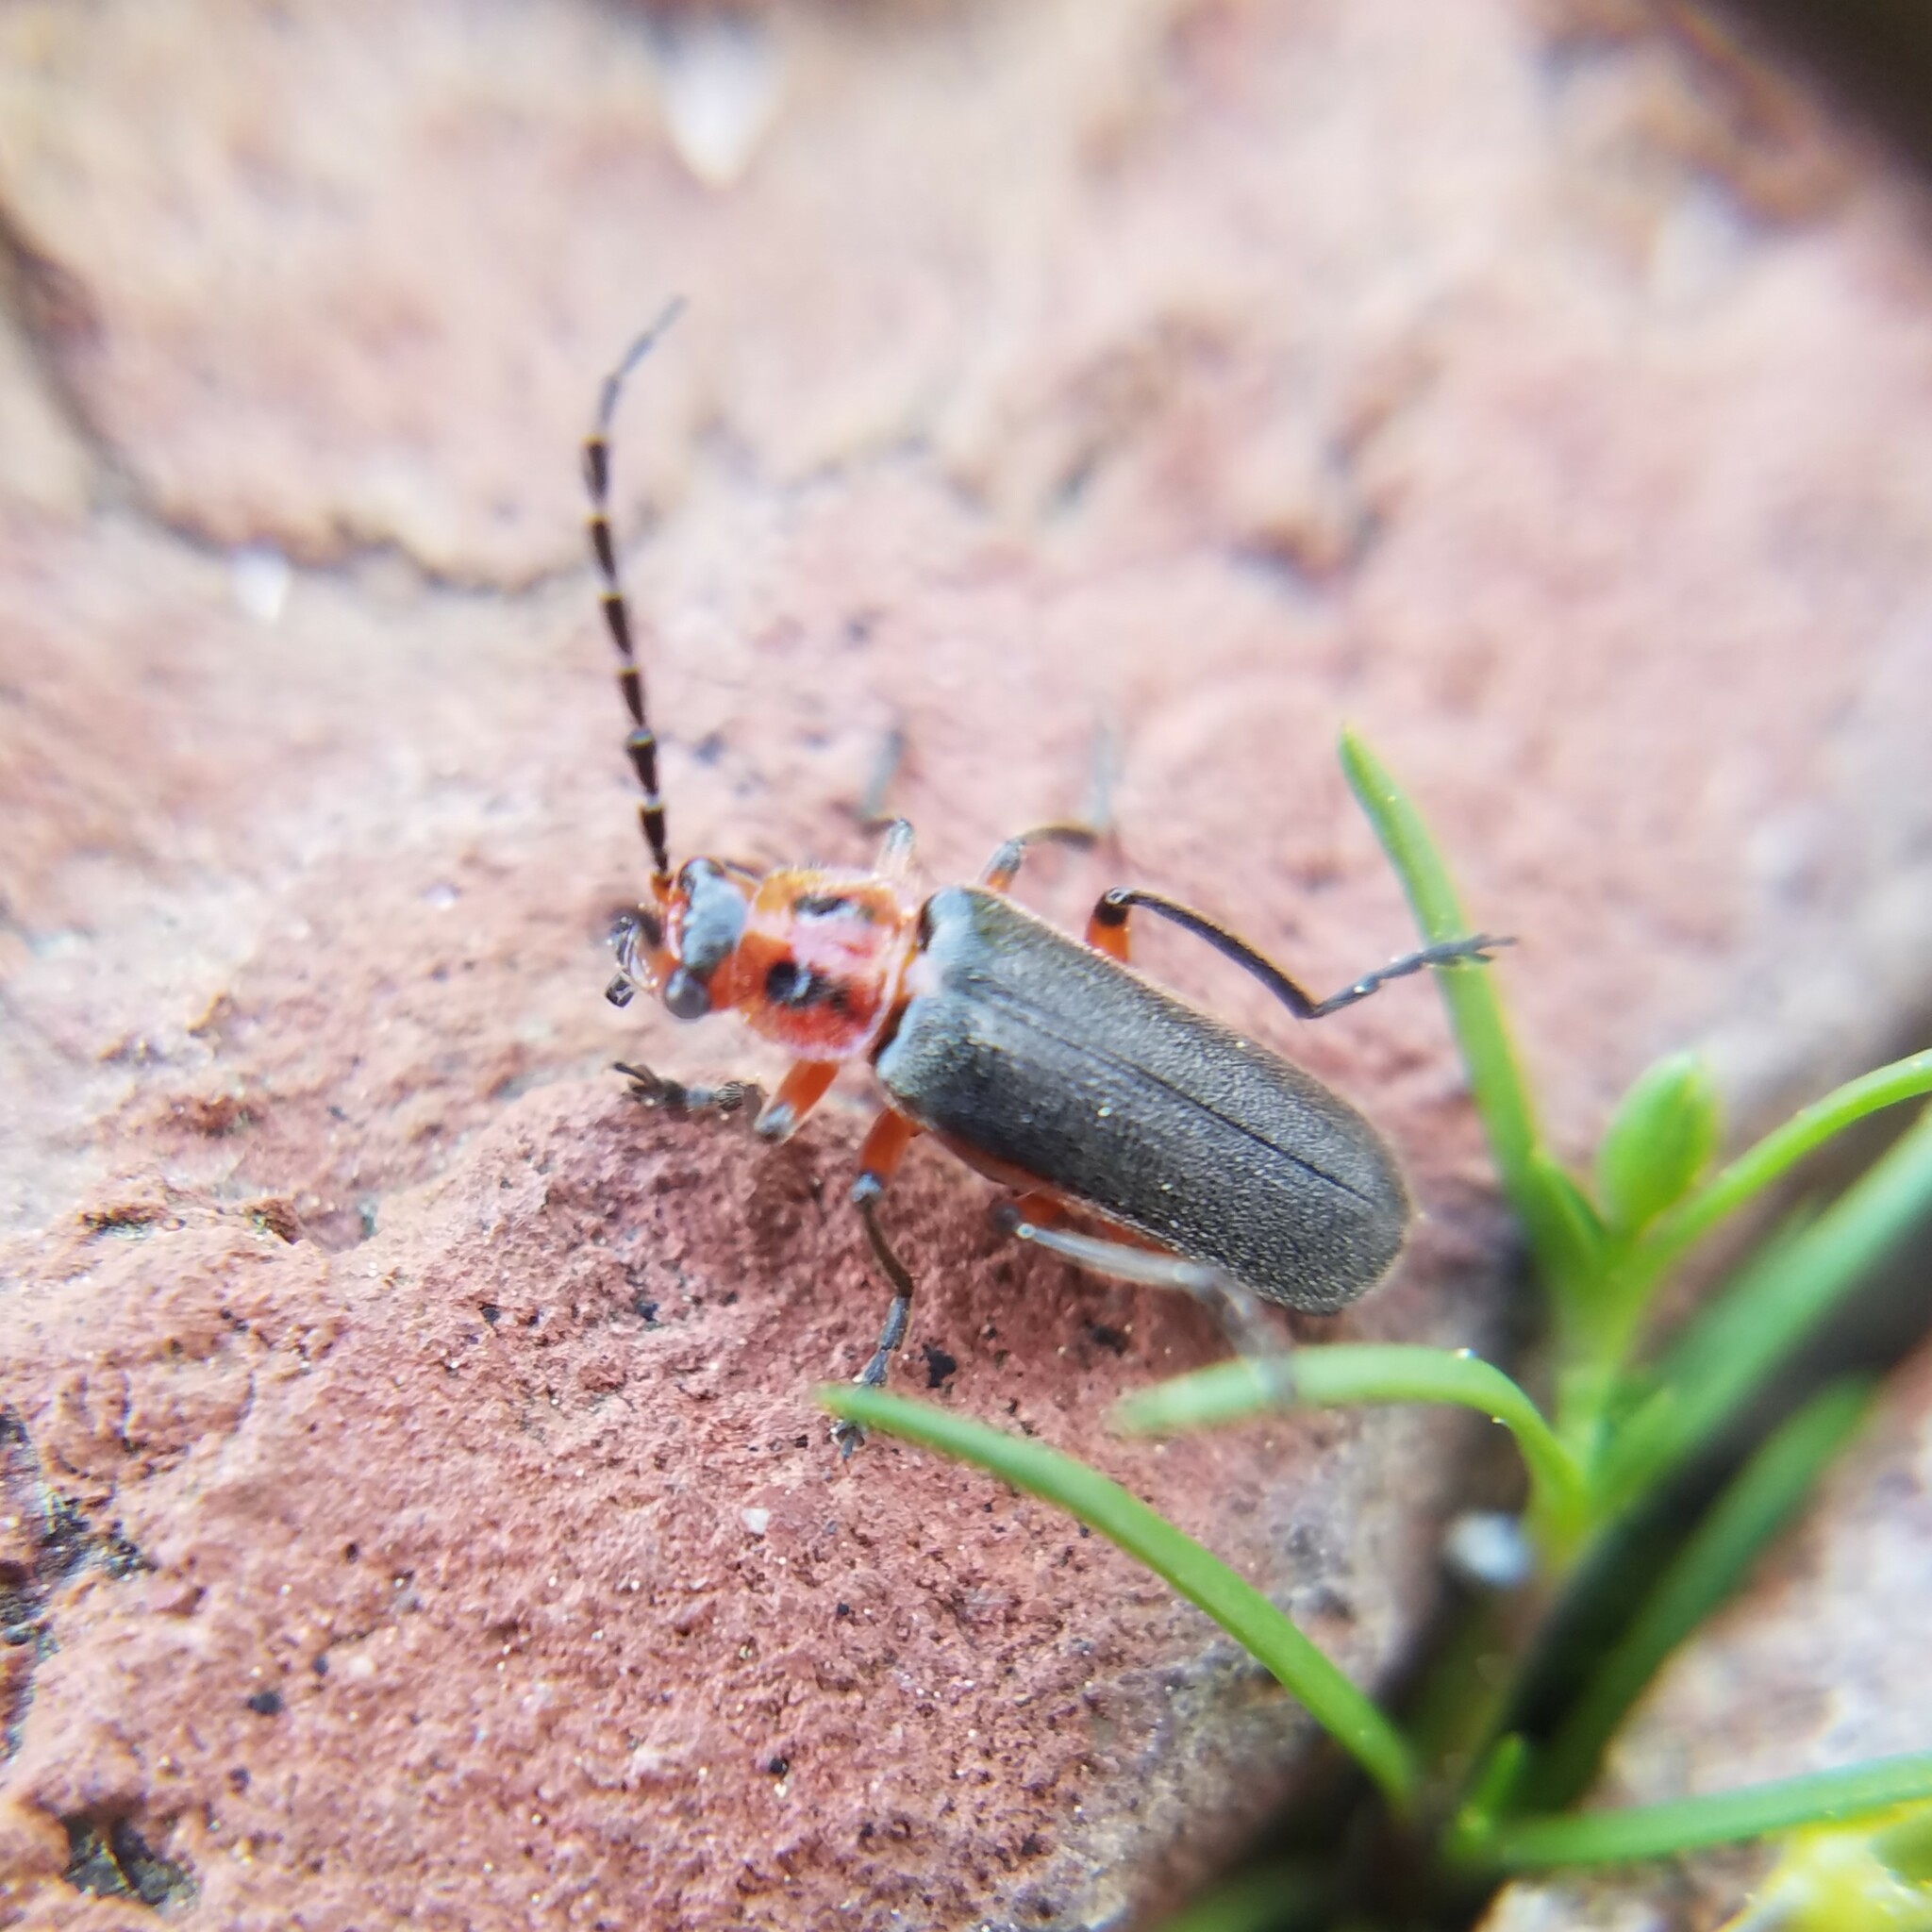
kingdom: Animalia
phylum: Arthropoda
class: Insecta
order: Coleoptera
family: Cantharidae
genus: Atalantycha
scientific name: Atalantycha bilineata
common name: Two-lined leatherwing
